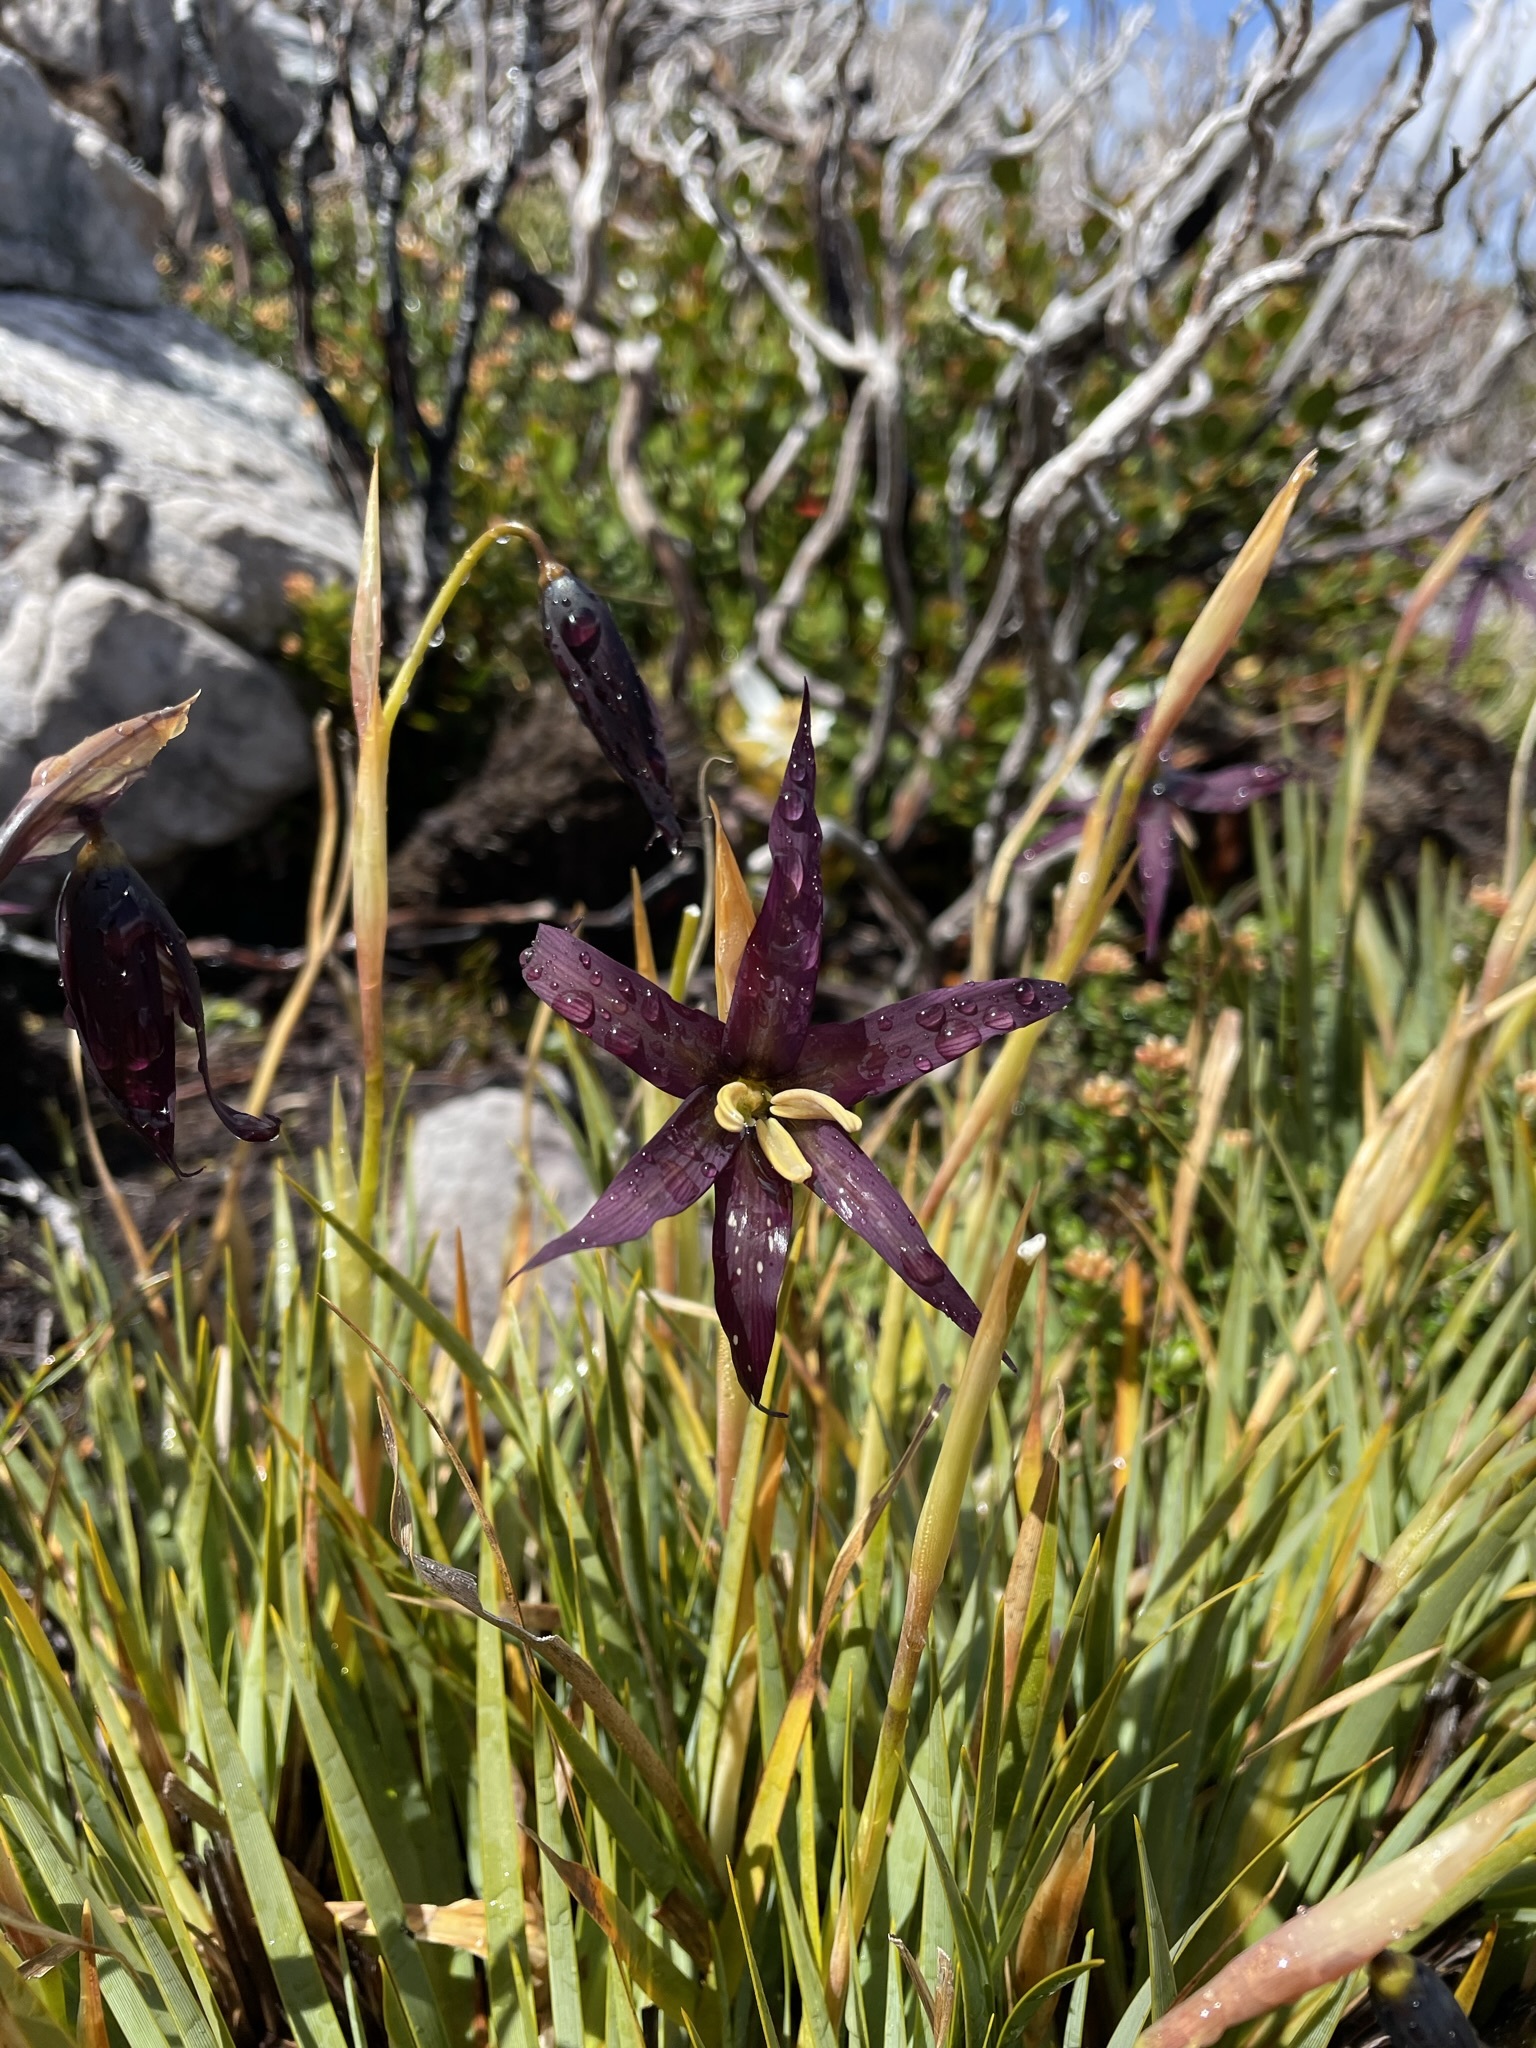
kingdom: Plantae
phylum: Tracheophyta
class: Liliopsida
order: Asparagales
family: Iridaceae
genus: Isophysis
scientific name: Isophysis tasmanica
